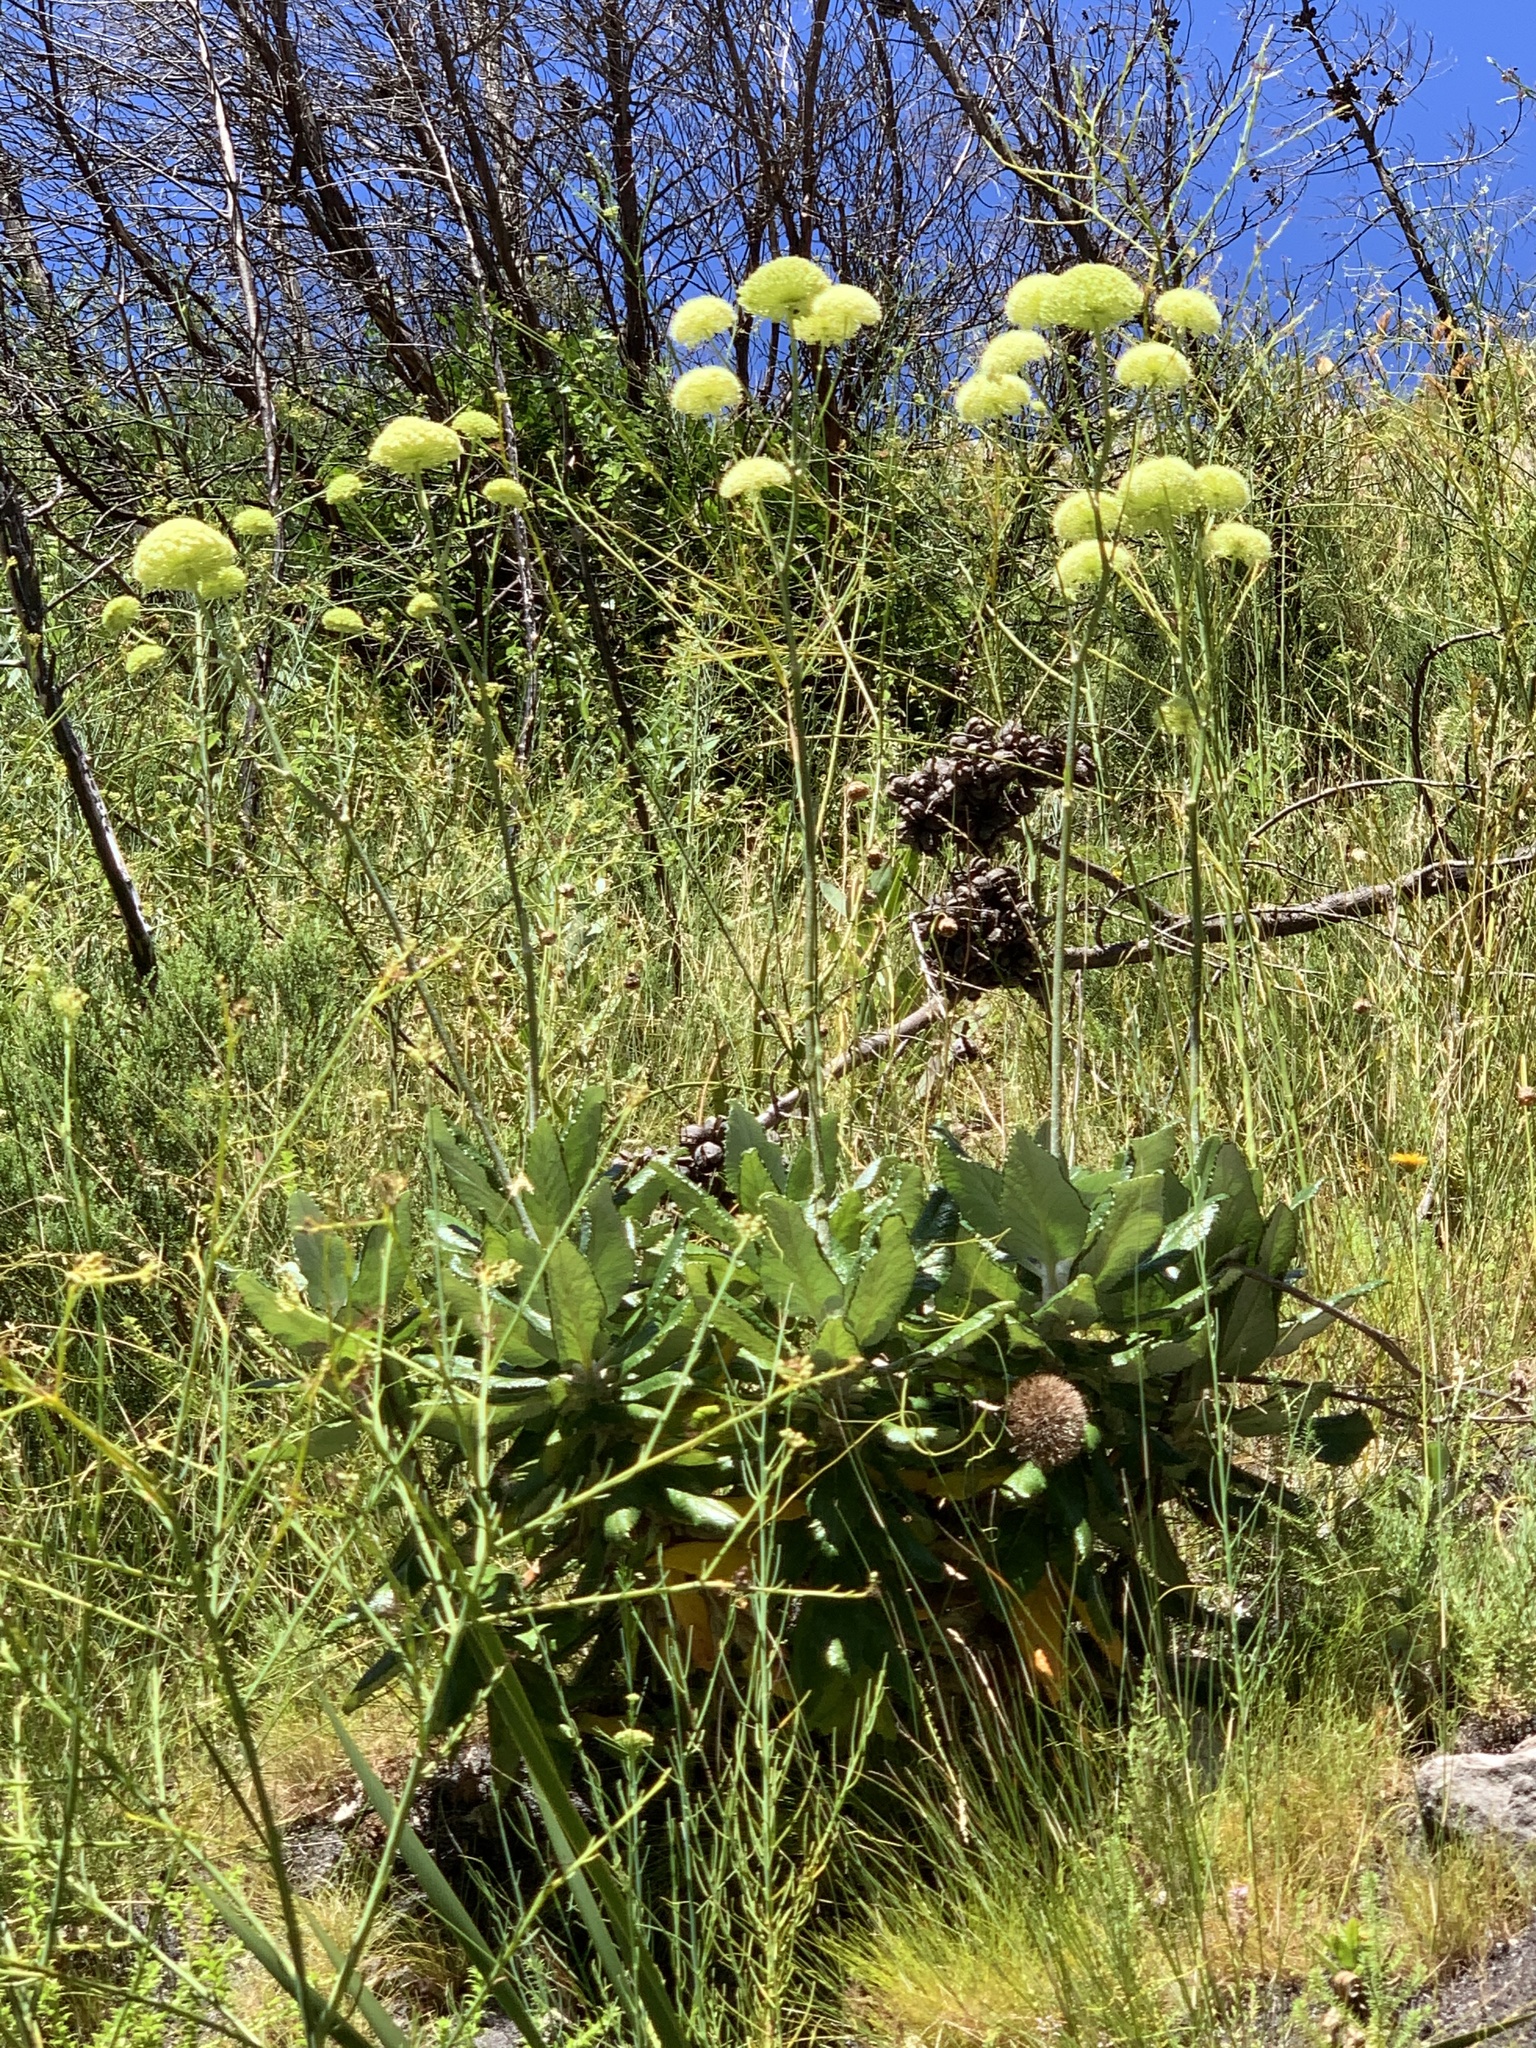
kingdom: Plantae
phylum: Tracheophyta
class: Magnoliopsida
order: Apiales
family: Apiaceae
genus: Hermas
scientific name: Hermas villosa
